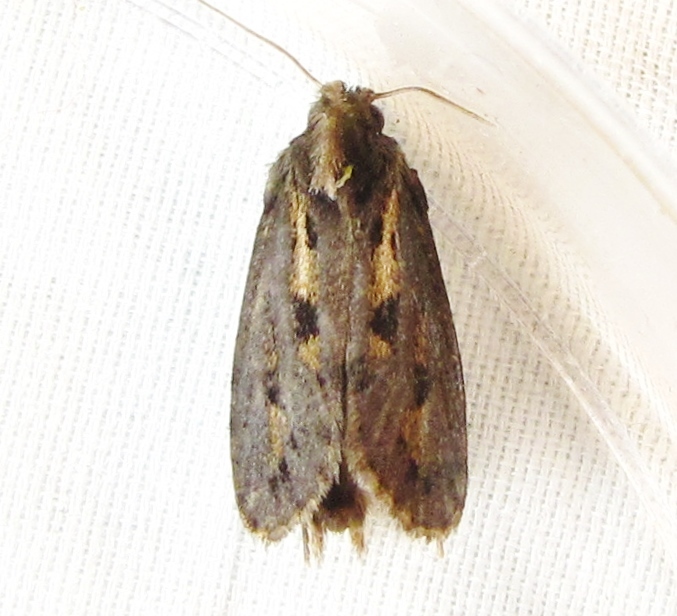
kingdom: Animalia
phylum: Arthropoda
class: Insecta
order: Lepidoptera
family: Tineidae
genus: Acrolophus
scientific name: Acrolophus popeanella
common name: Clemens' grass tubeworm moth
